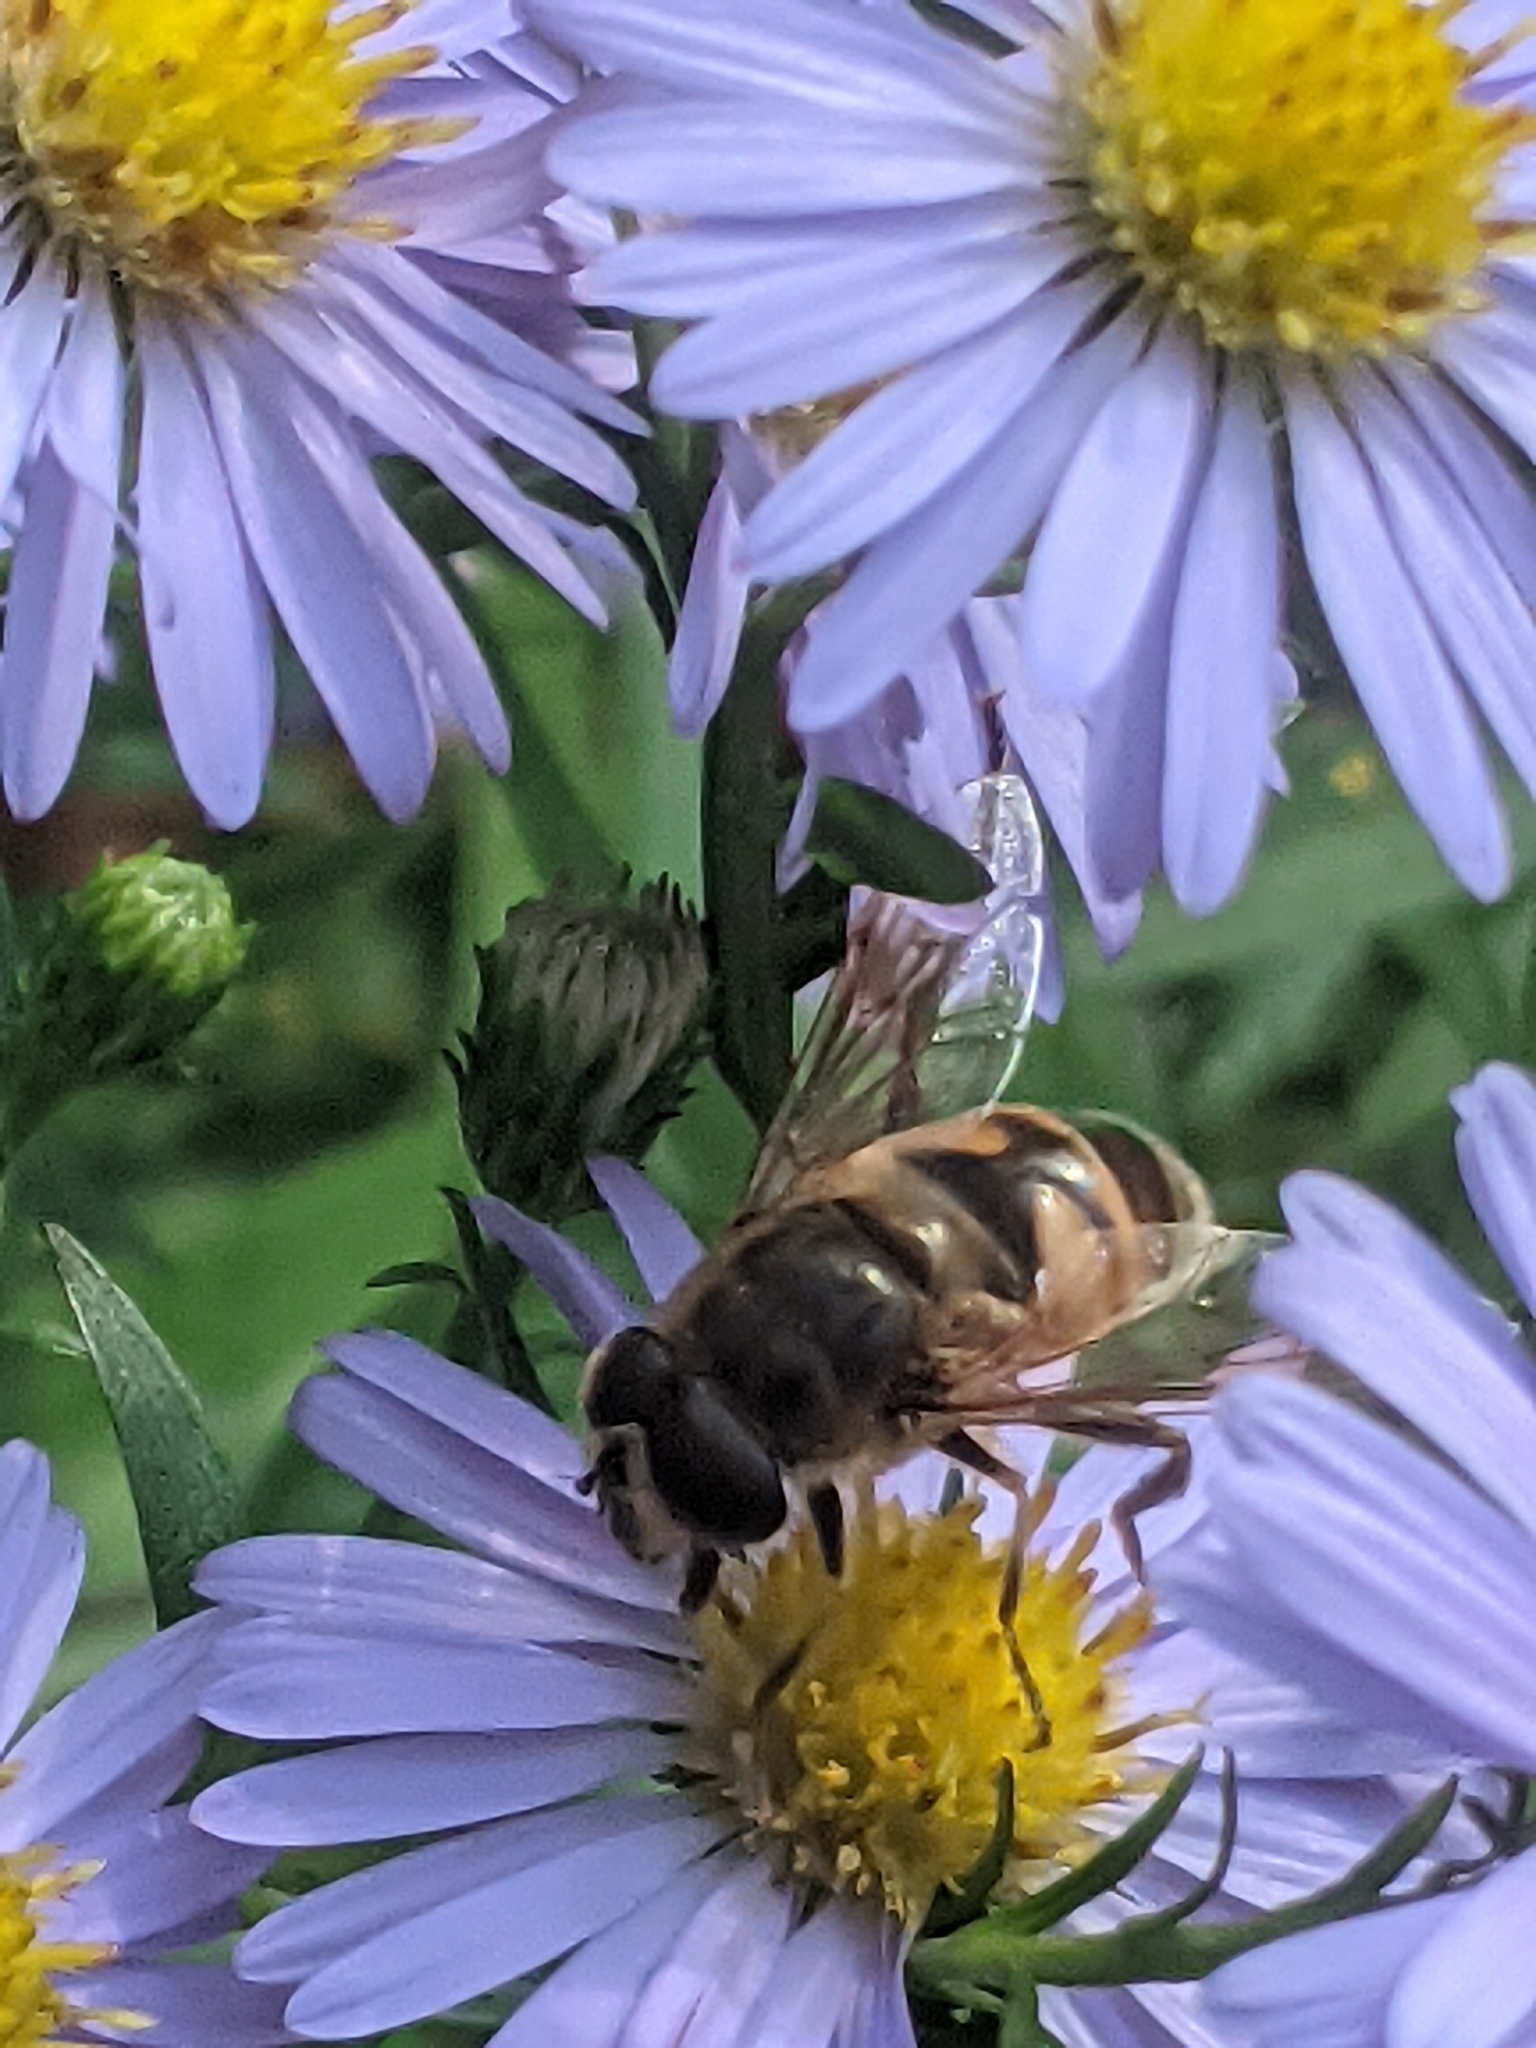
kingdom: Animalia
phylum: Arthropoda
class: Insecta
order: Diptera
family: Syrphidae
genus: Eristalis
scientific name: Eristalis tenax
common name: Drone fly
